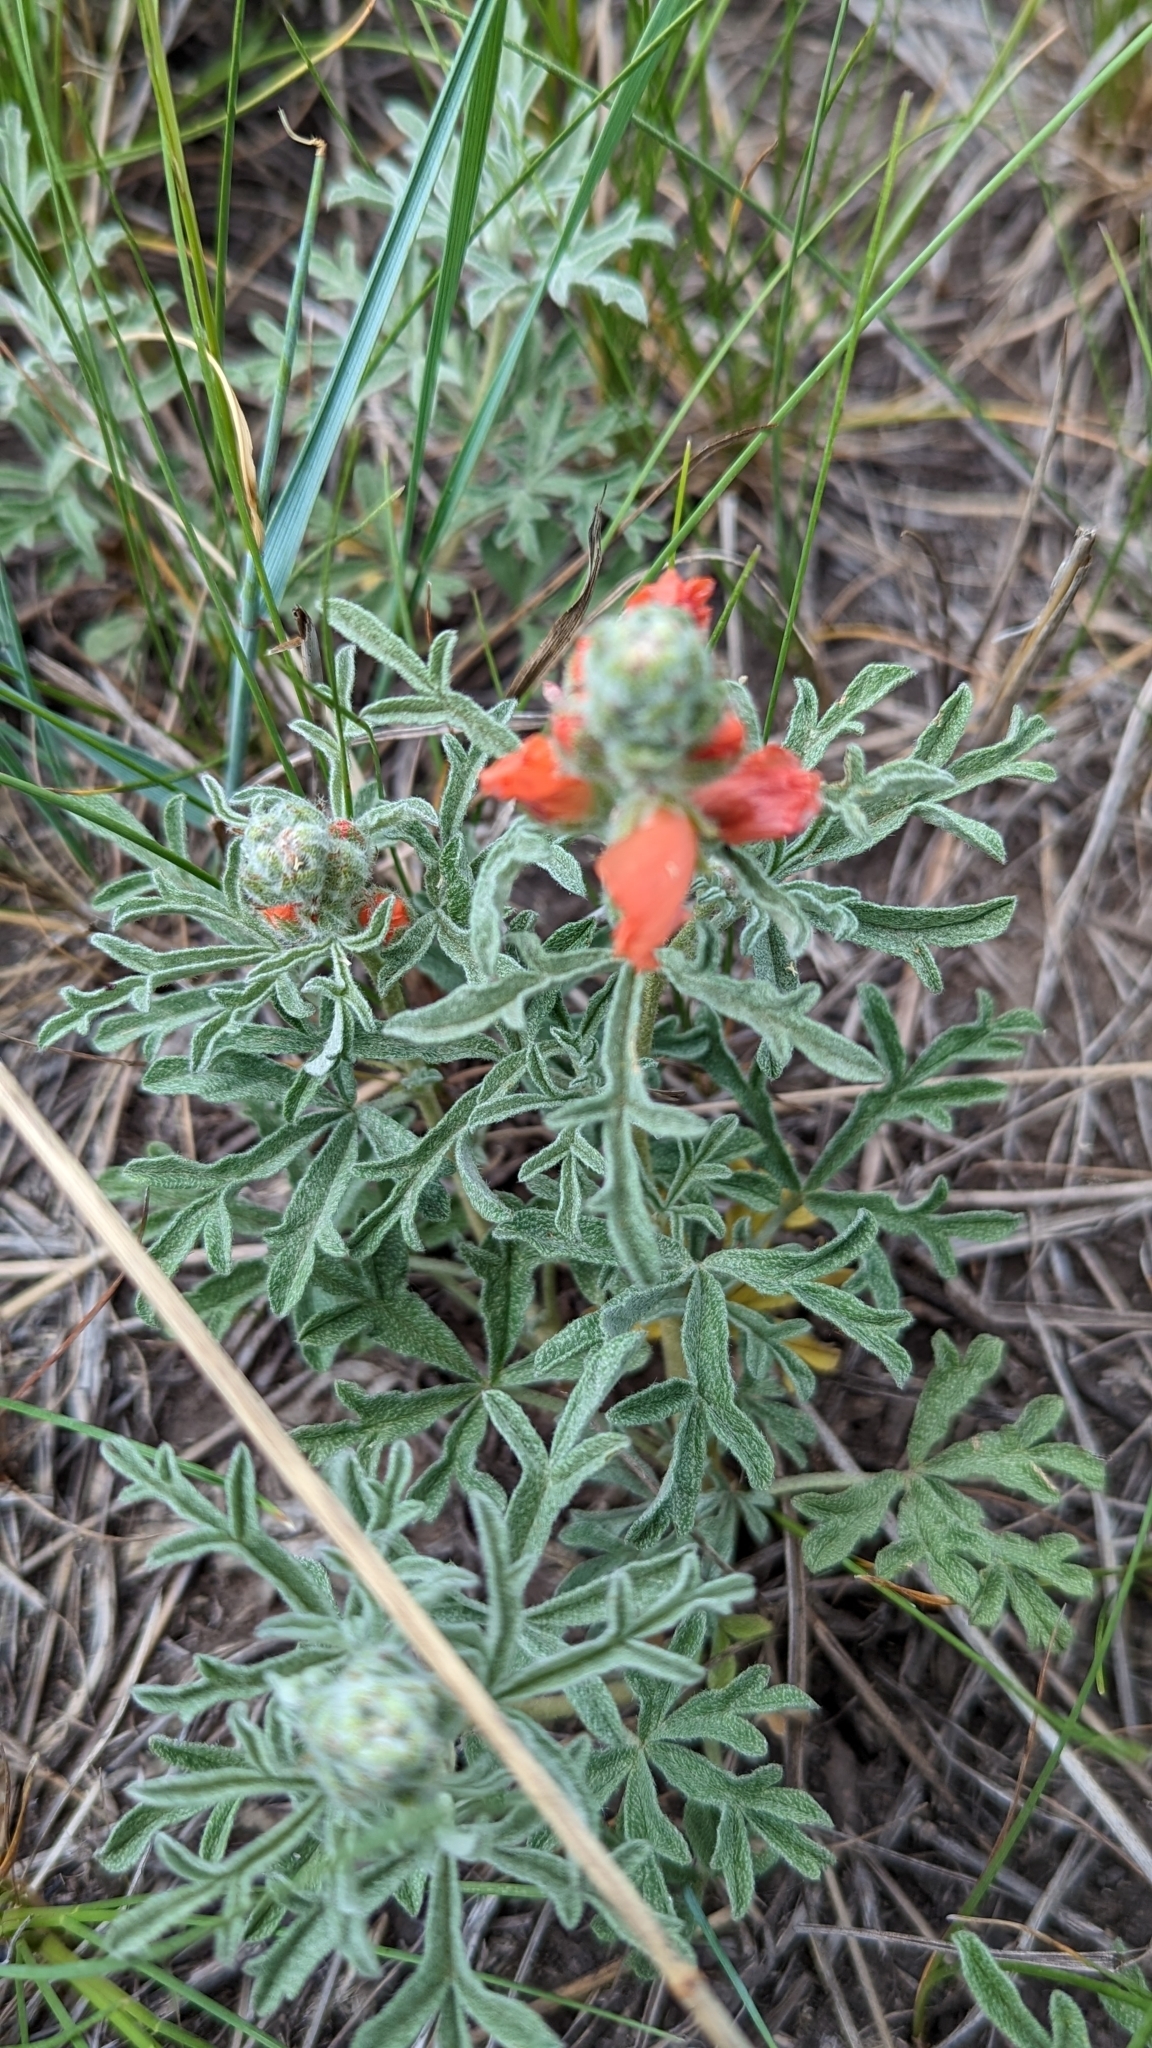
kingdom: Plantae
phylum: Tracheophyta
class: Magnoliopsida
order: Malvales
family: Malvaceae
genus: Sphaeralcea
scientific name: Sphaeralcea coccinea
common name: Moss-rose
